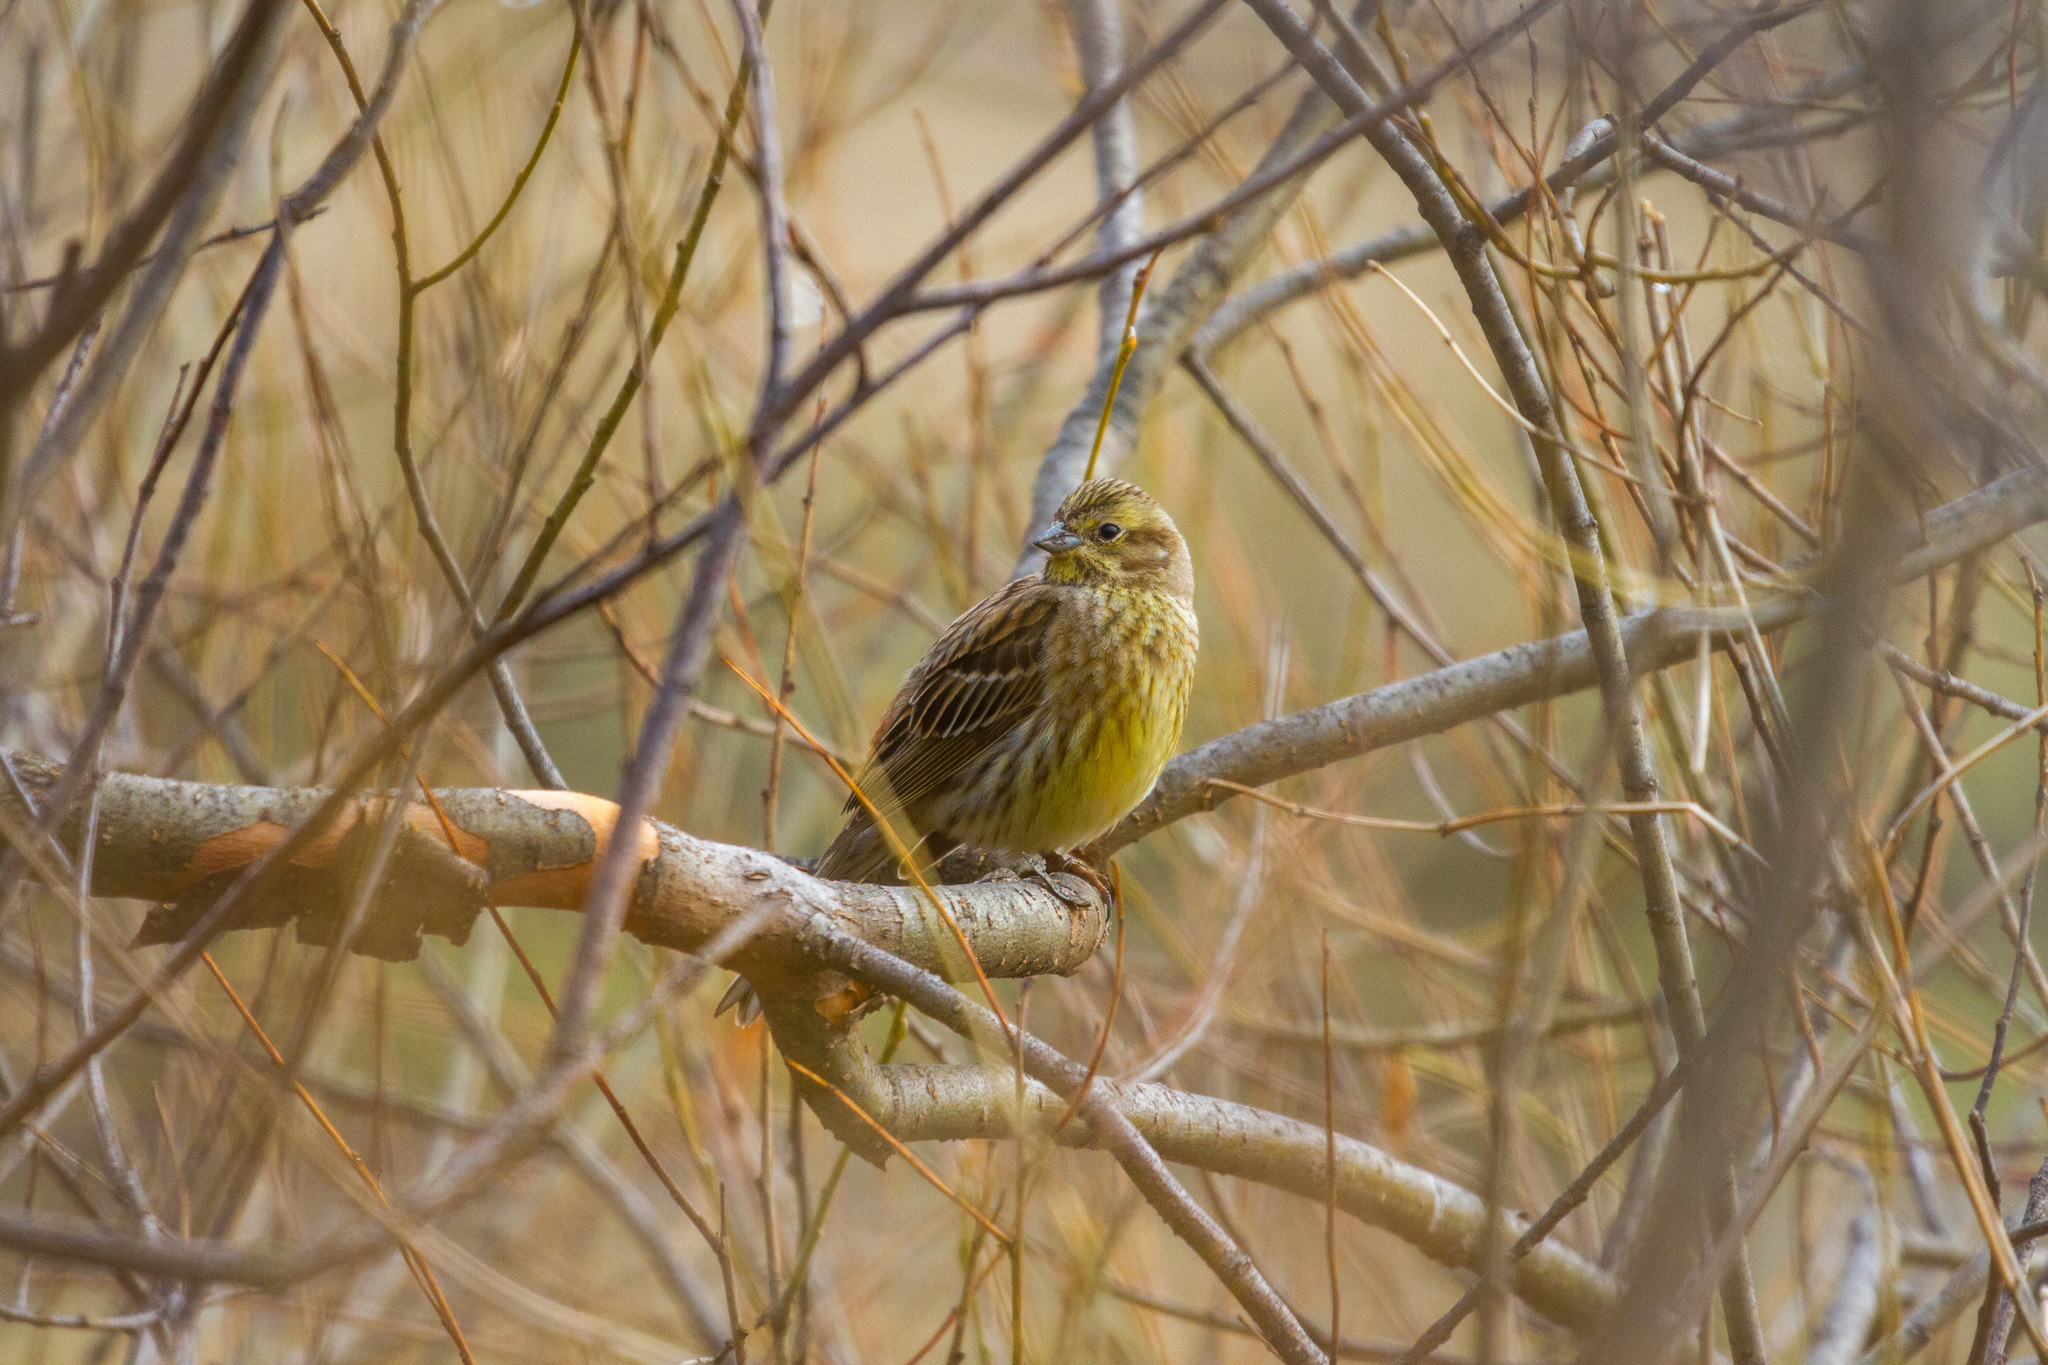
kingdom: Animalia
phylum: Chordata
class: Aves
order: Passeriformes
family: Emberizidae
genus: Emberiza
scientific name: Emberiza citrinella
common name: Yellowhammer
